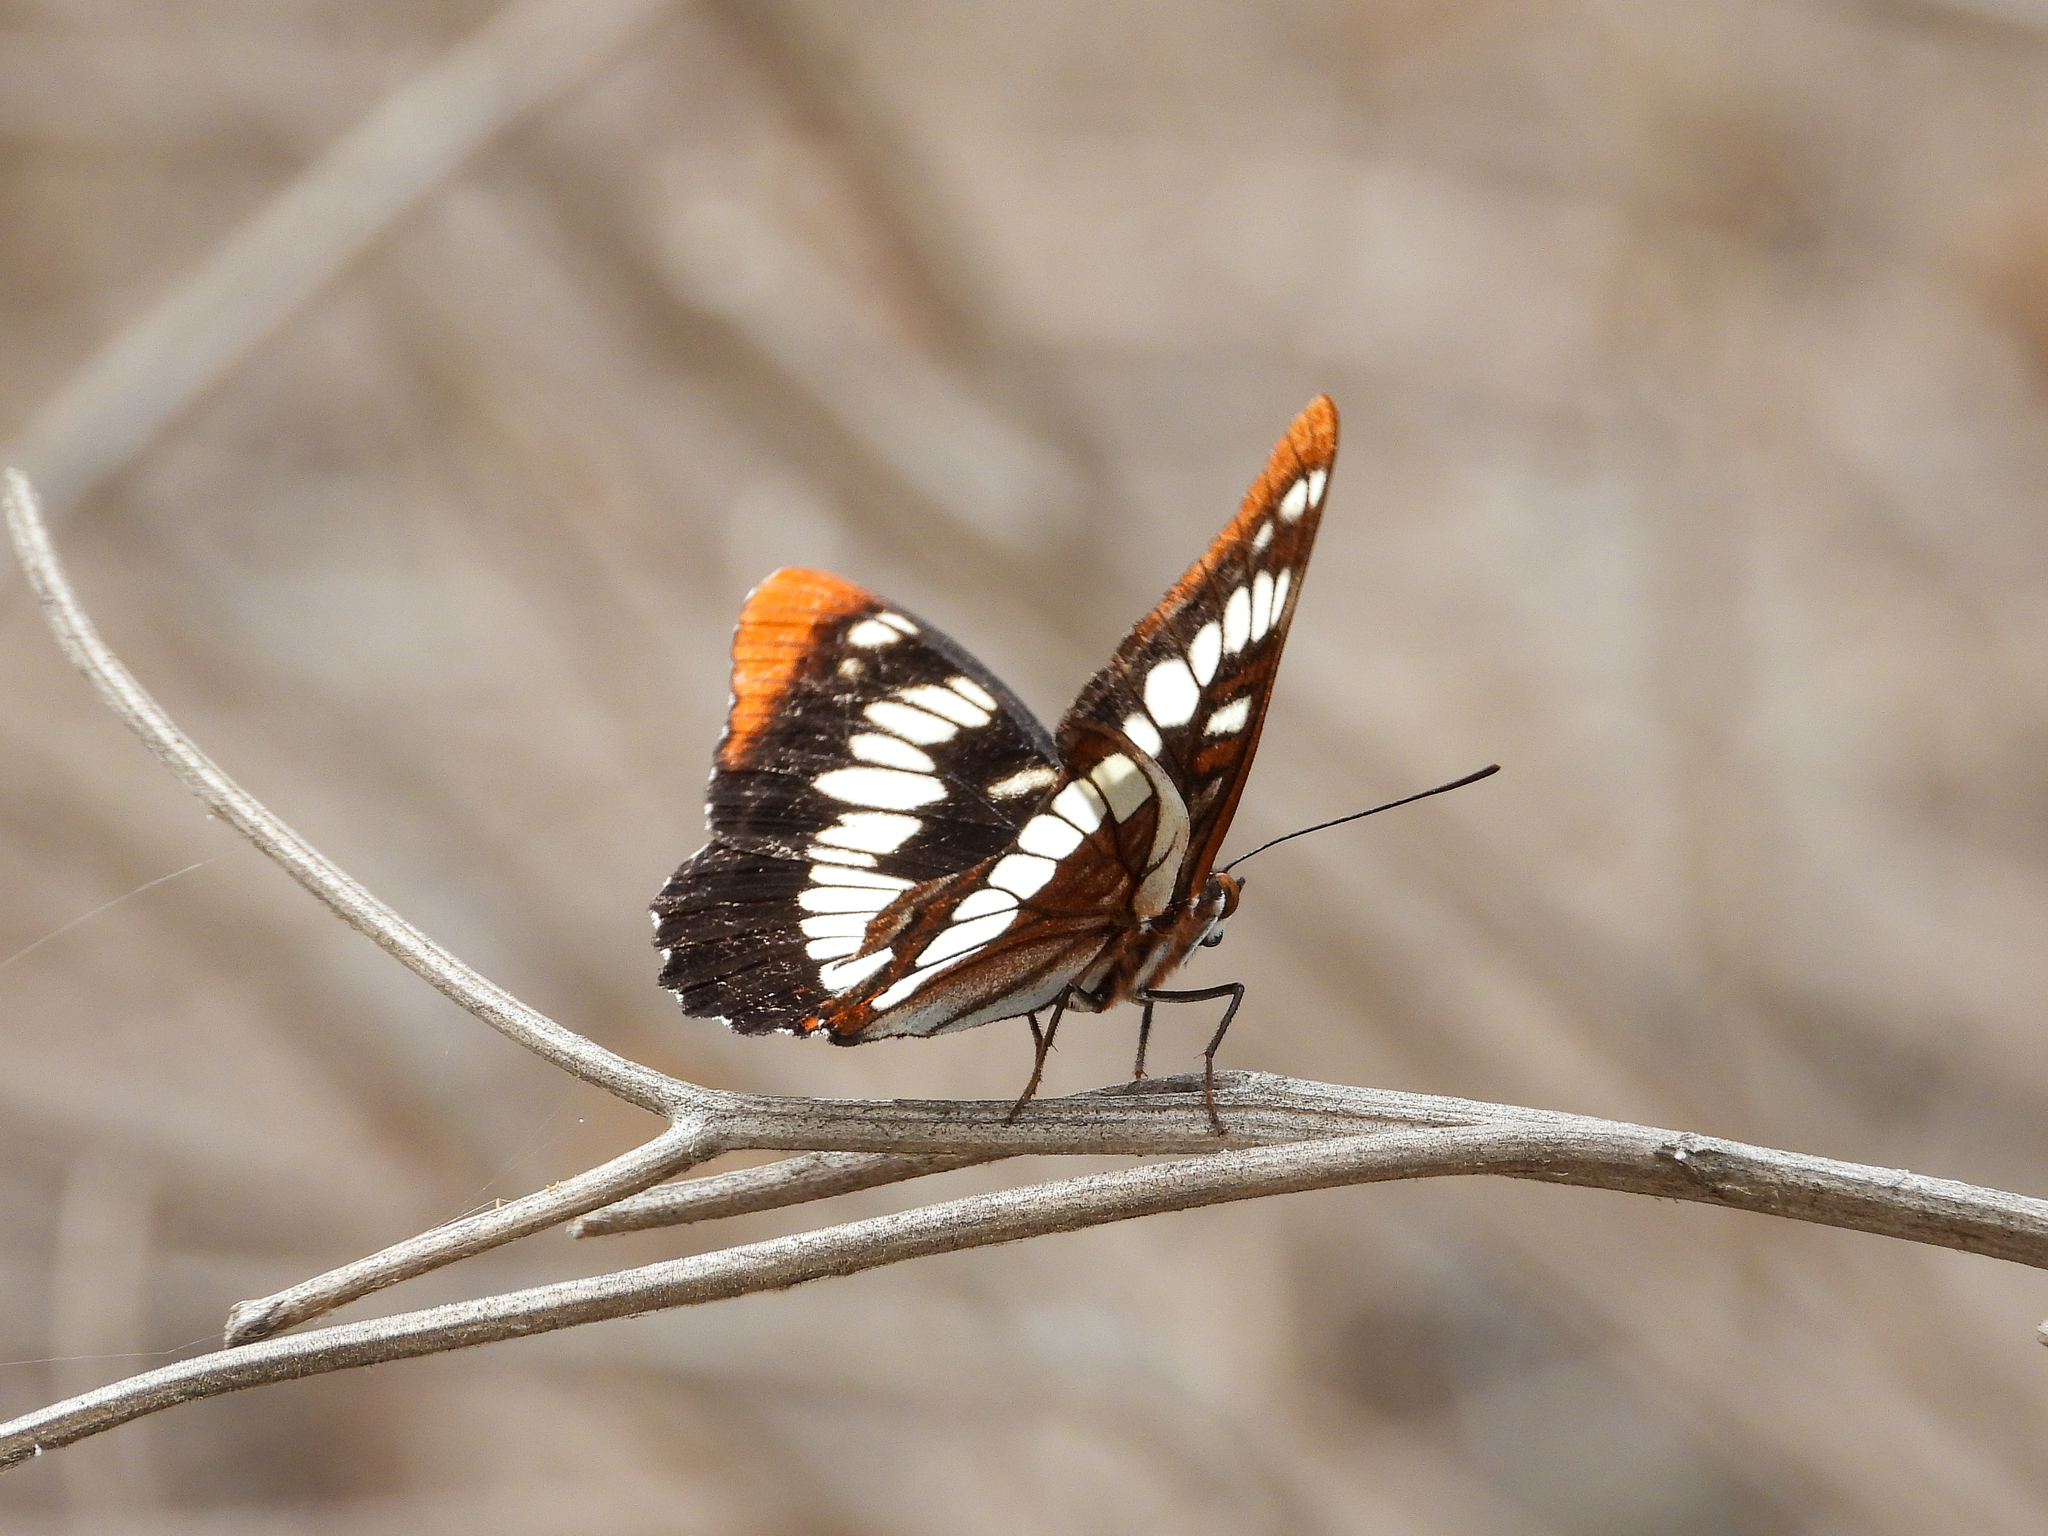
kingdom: Animalia
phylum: Arthropoda
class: Insecta
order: Lepidoptera
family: Nymphalidae
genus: Limenitis
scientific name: Limenitis lorquini
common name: Lorquin's admiral
